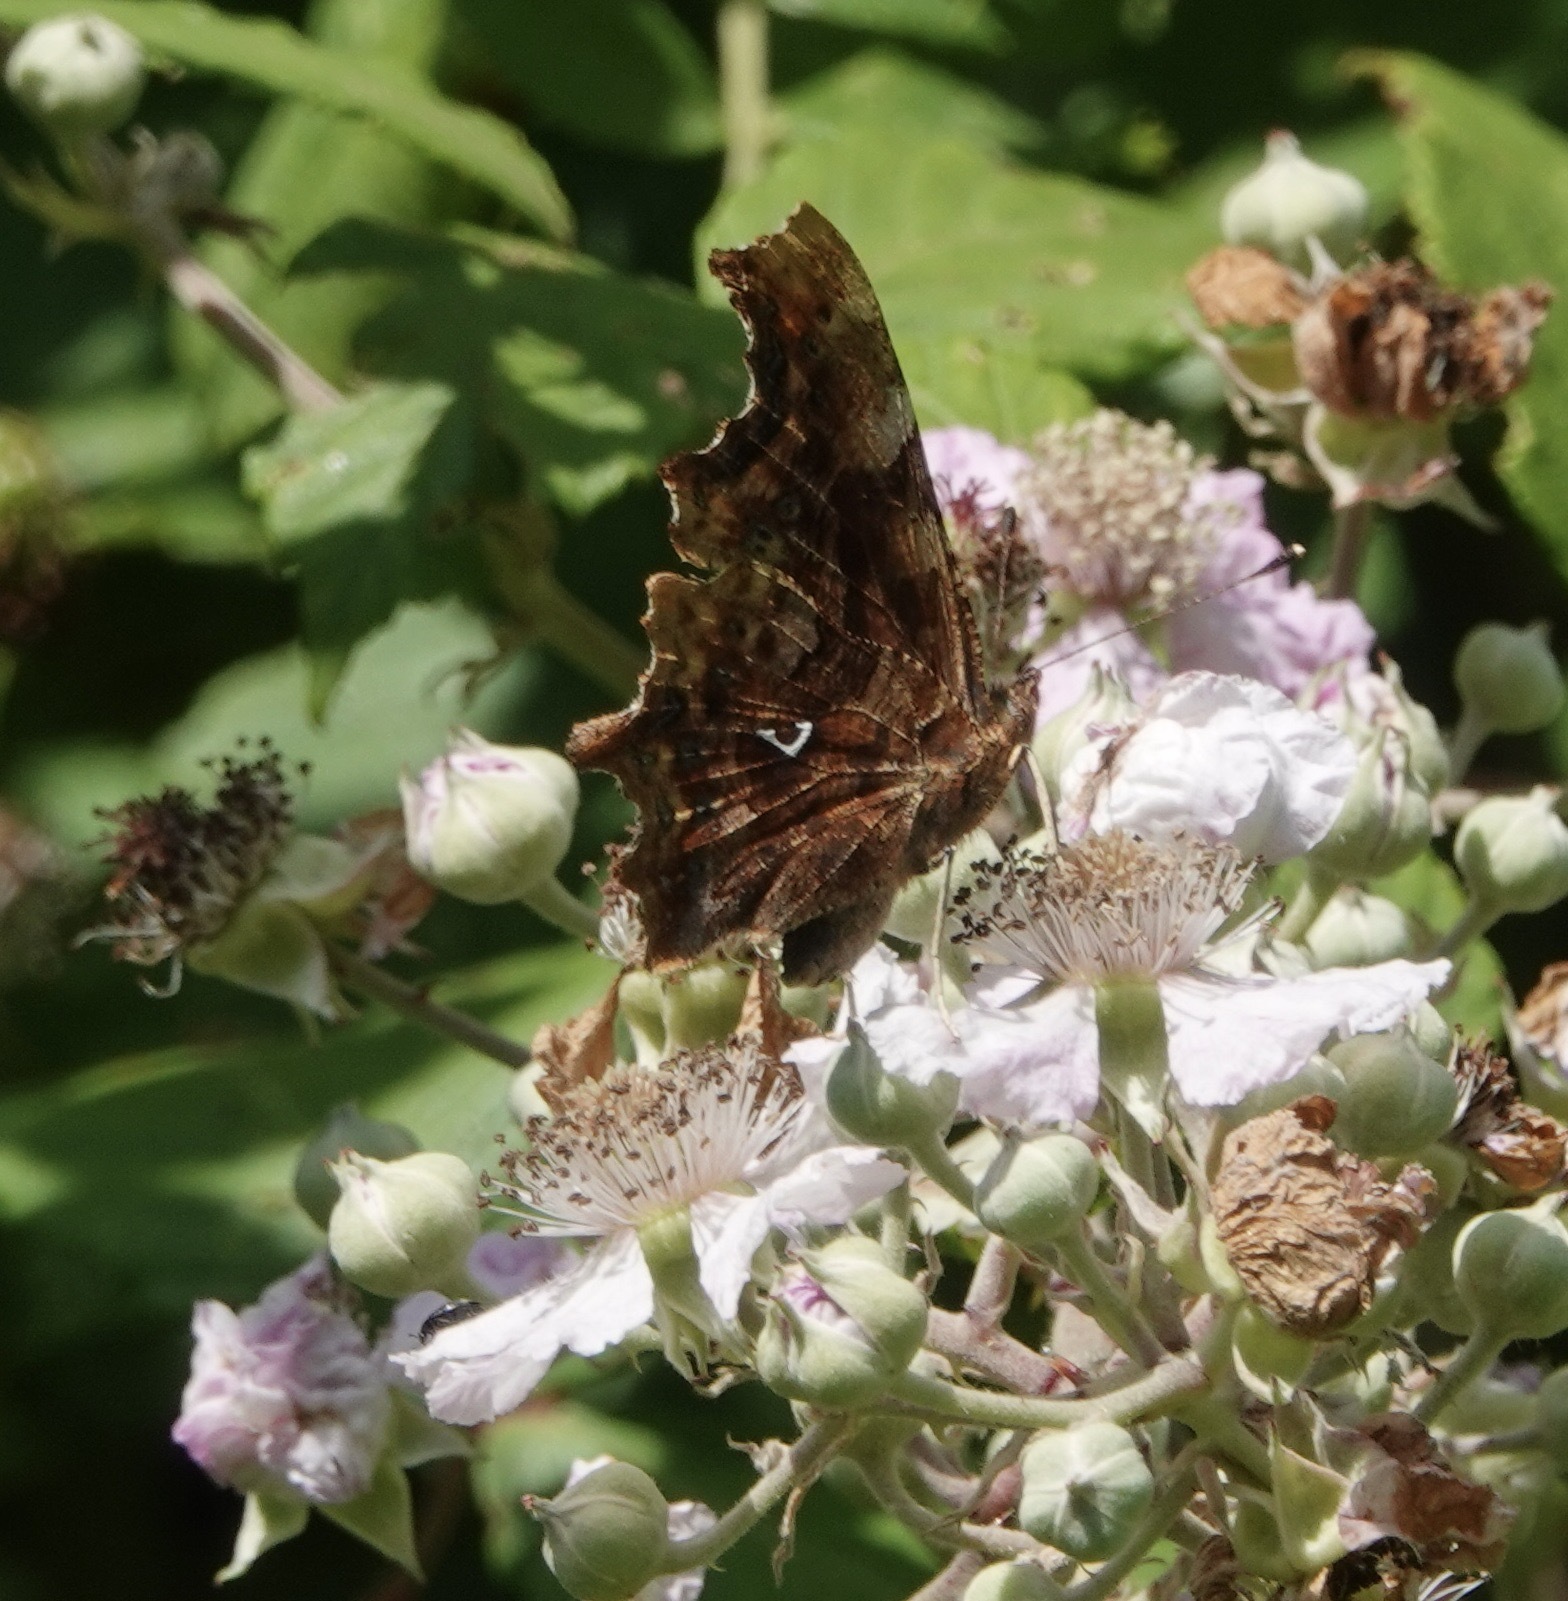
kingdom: Animalia
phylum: Arthropoda
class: Insecta
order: Lepidoptera
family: Nymphalidae
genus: Polygonia
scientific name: Polygonia c-album
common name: Comma
